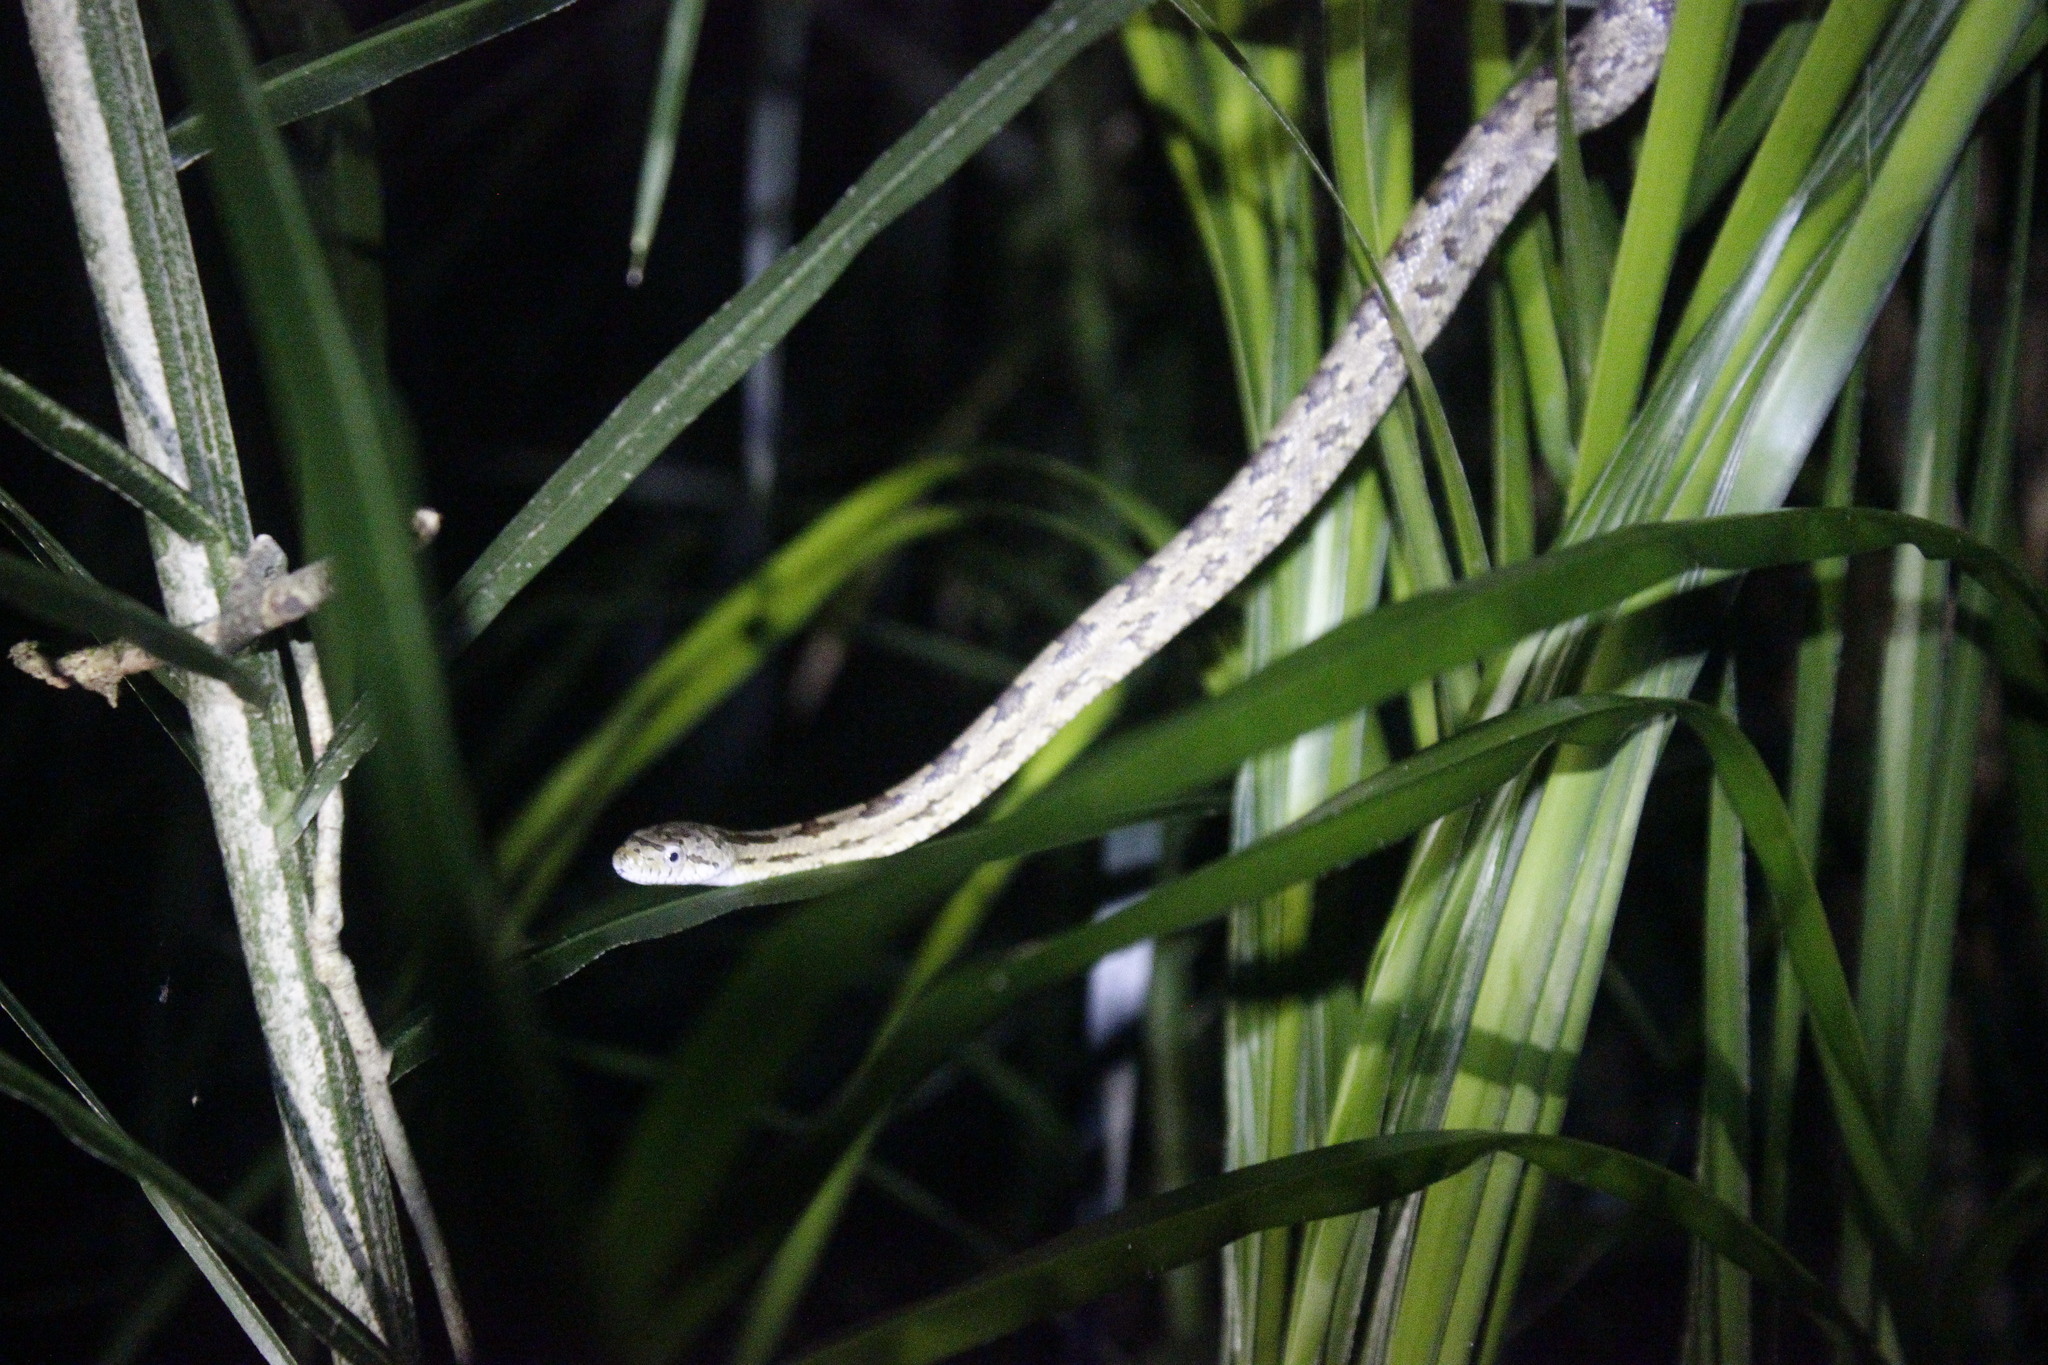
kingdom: Animalia
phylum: Chordata
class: Squamata
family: Colubridae
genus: Pantherophis
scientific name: Pantherophis alleghaniensis
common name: Eastern rat snake
